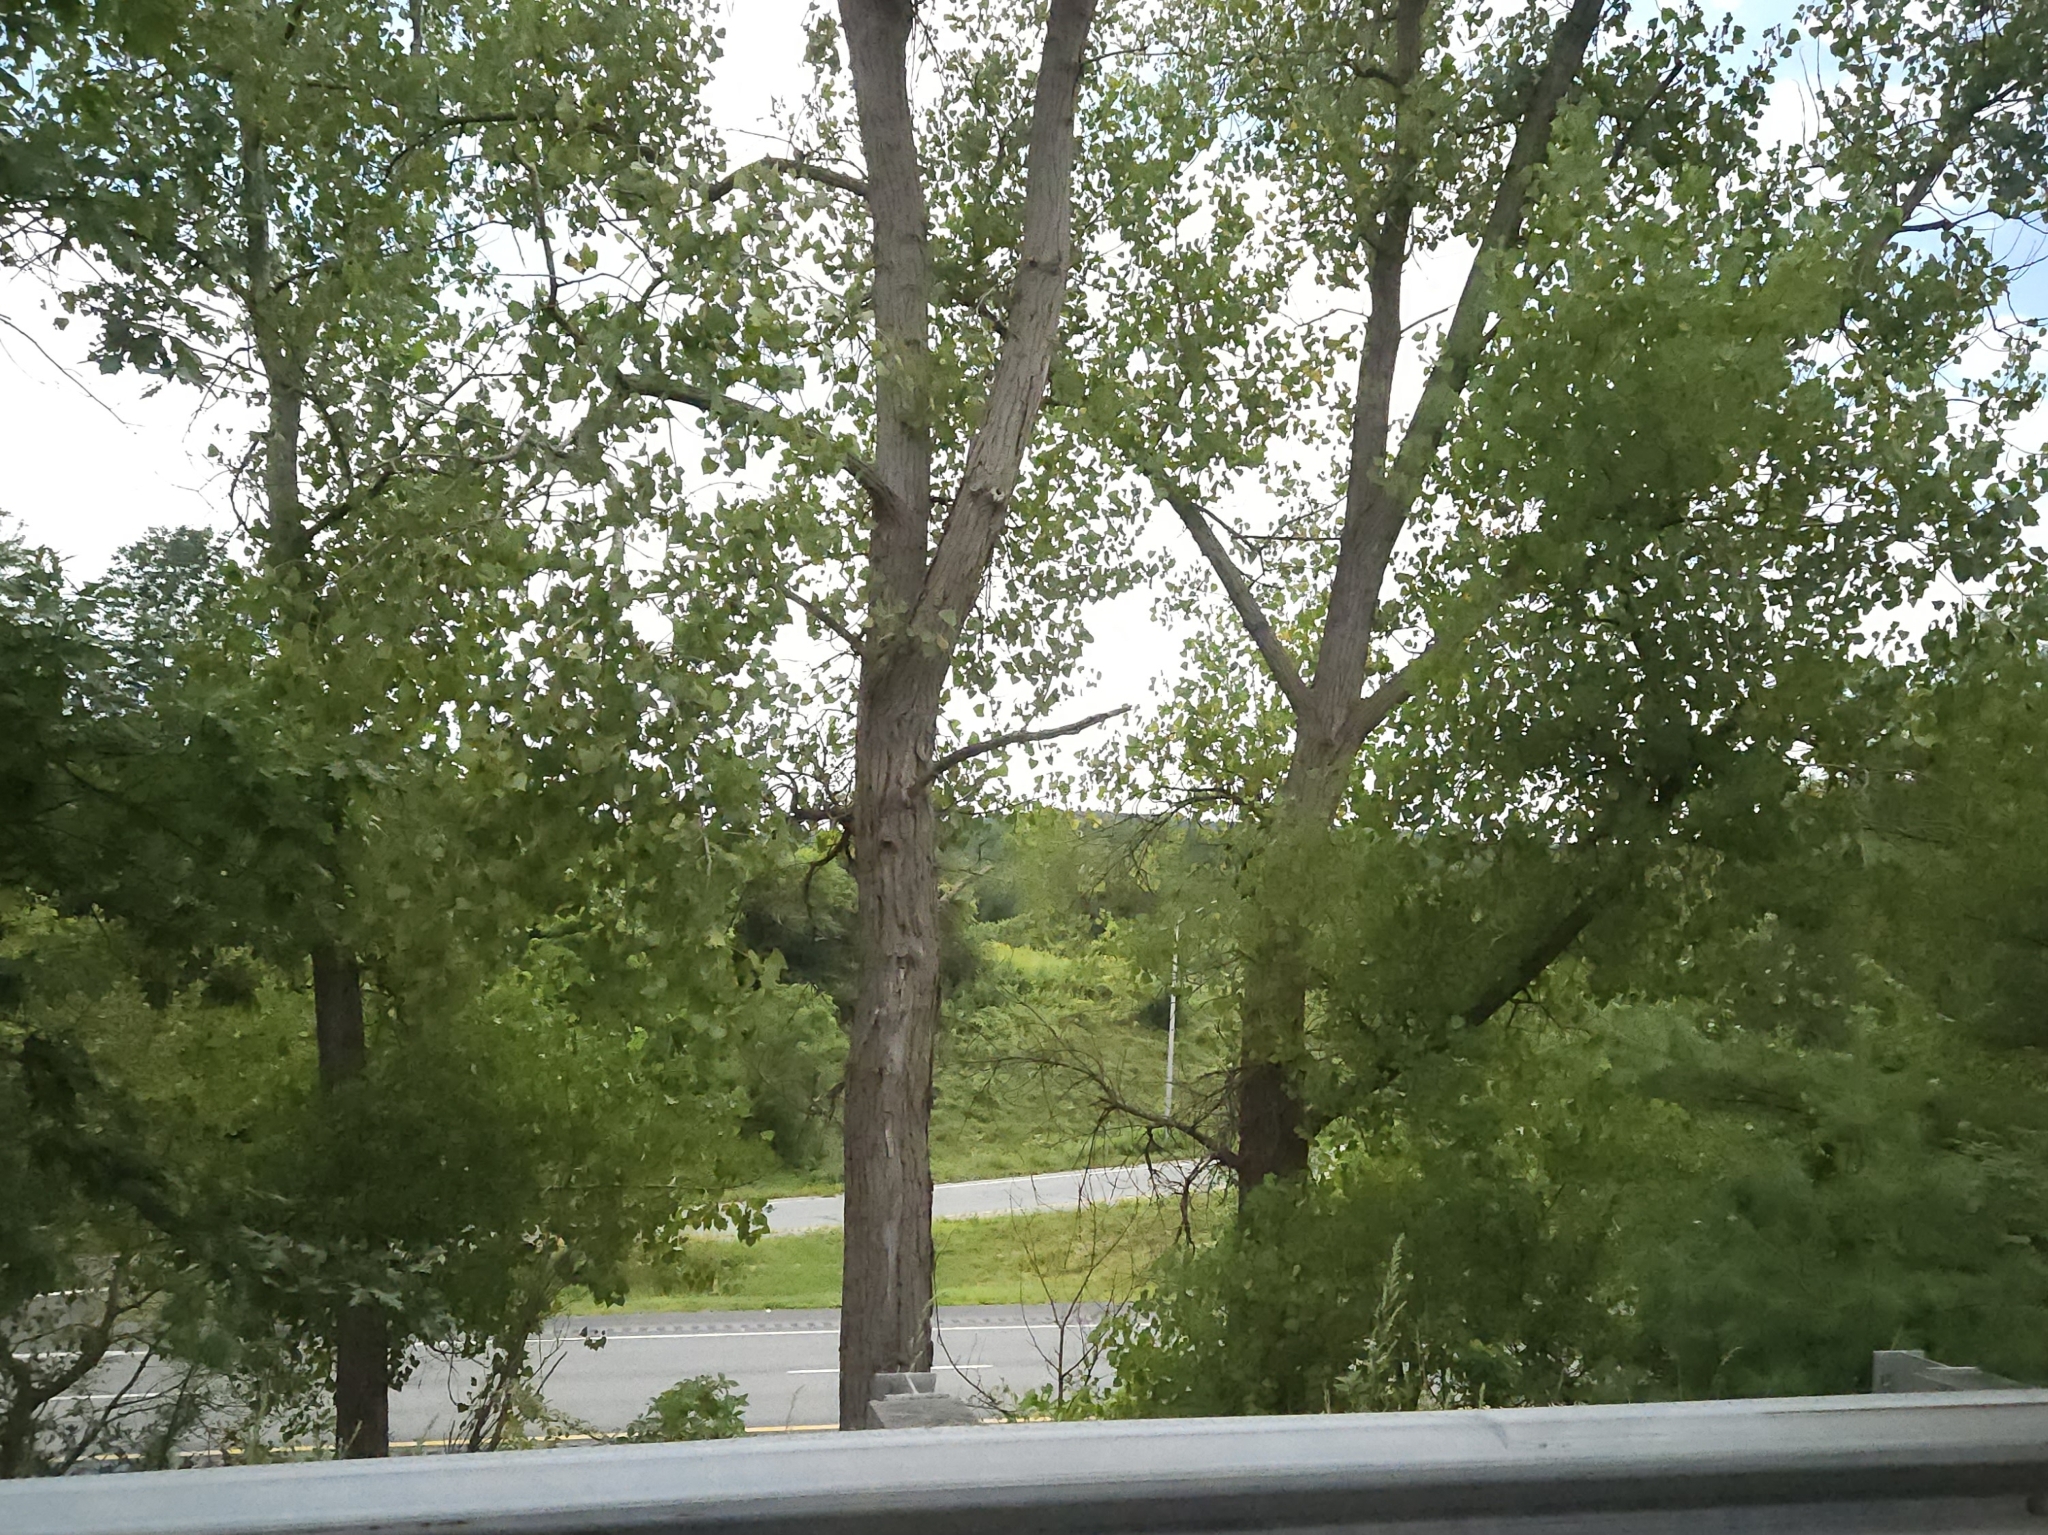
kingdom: Plantae
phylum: Tracheophyta
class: Magnoliopsida
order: Malpighiales
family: Salicaceae
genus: Populus
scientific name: Populus deltoides
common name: Eastern cottonwood
